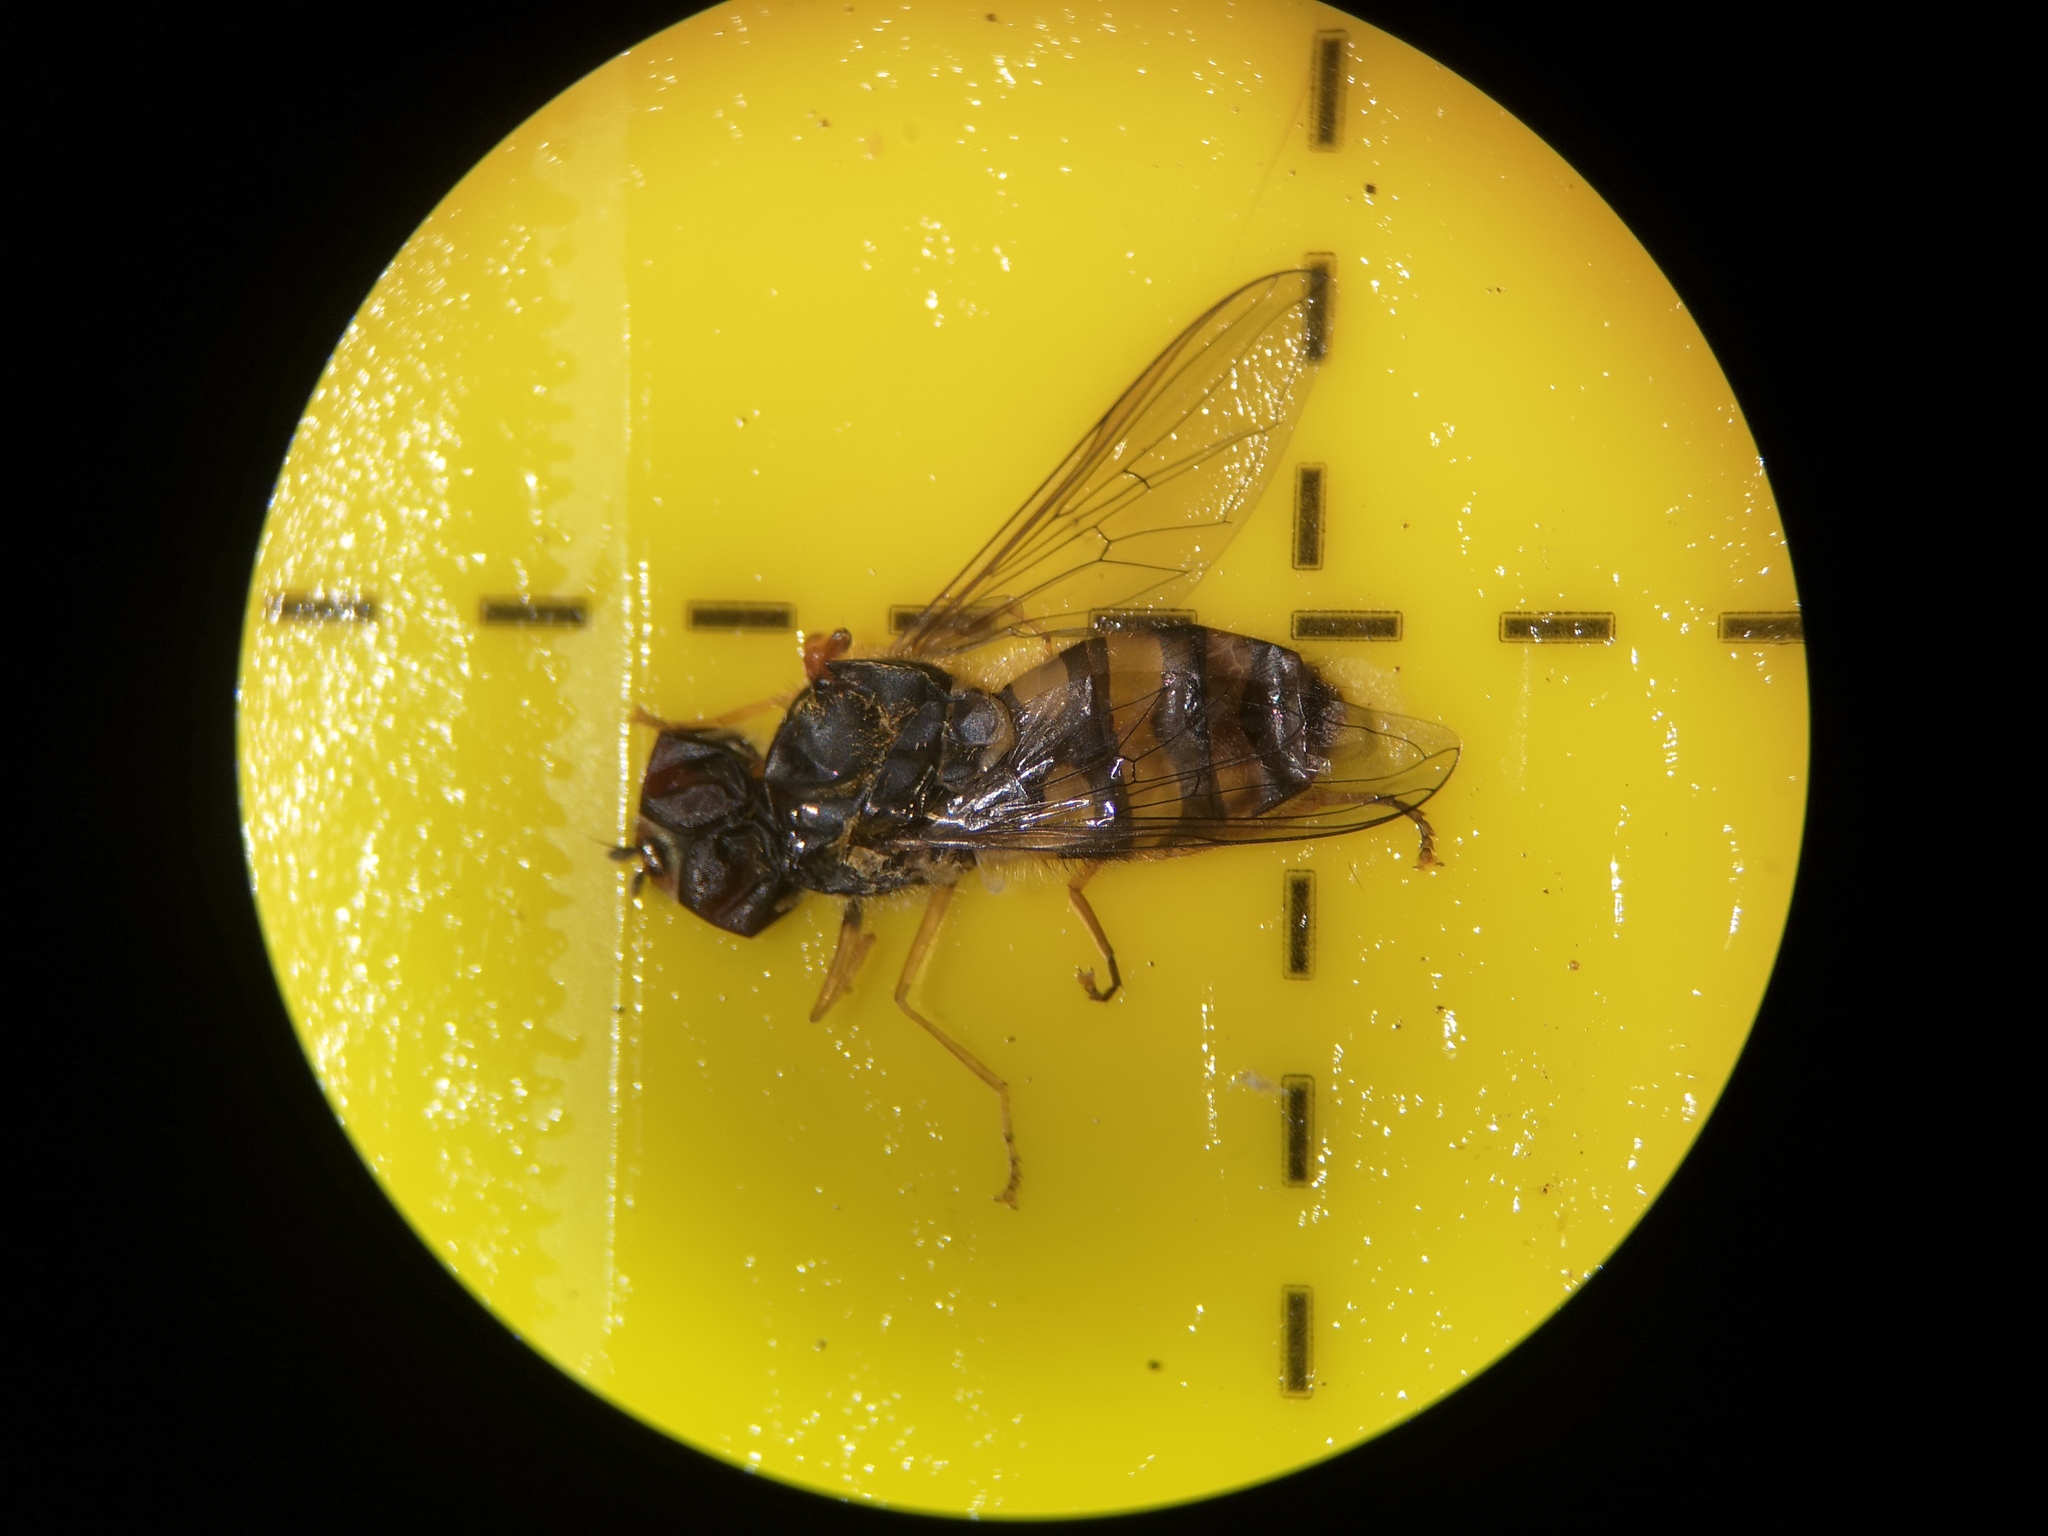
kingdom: Animalia
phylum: Arthropoda
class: Insecta
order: Diptera
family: Syrphidae
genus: Syrphus
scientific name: Syrphus
